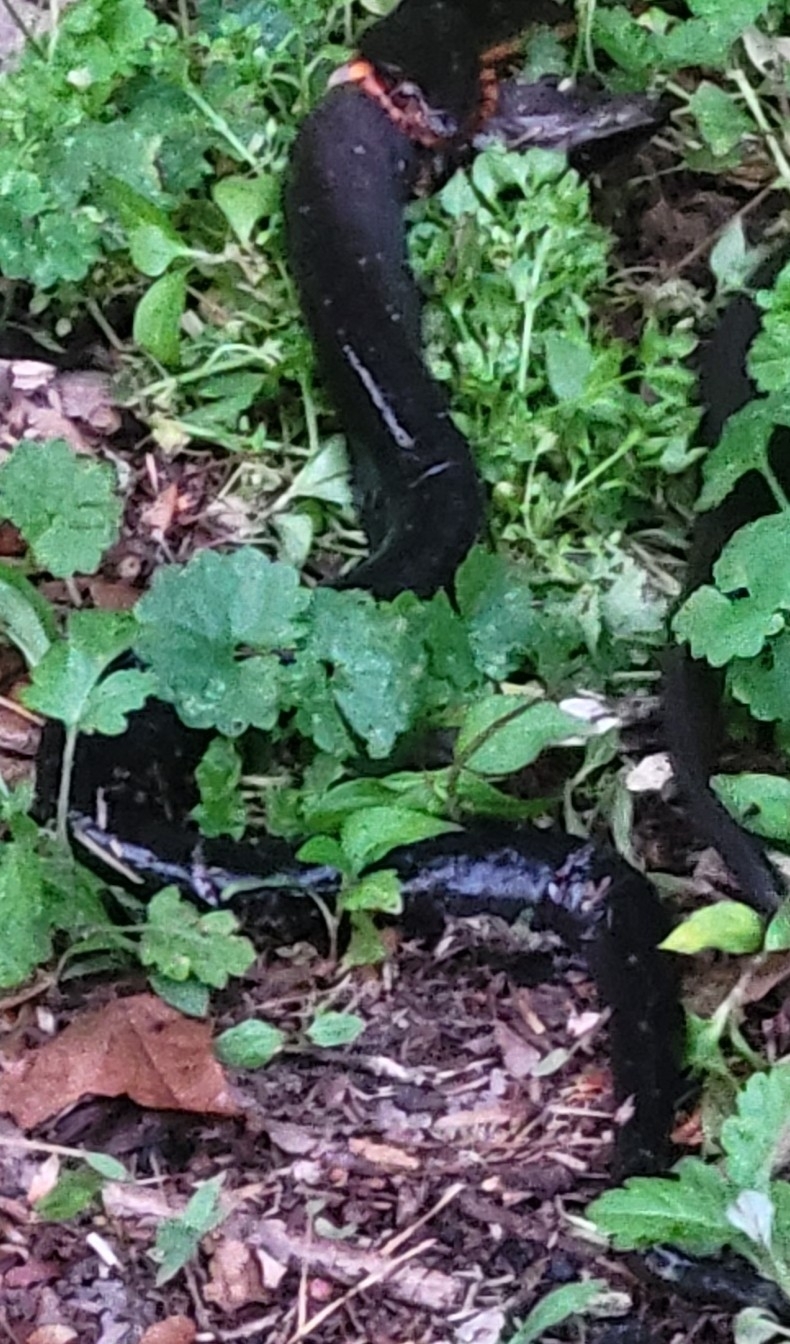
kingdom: Animalia
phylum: Chordata
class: Amphibia
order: Caudata
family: Amphiumidae
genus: Amphiuma
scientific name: Amphiuma means
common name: Two-toed amphiuma
